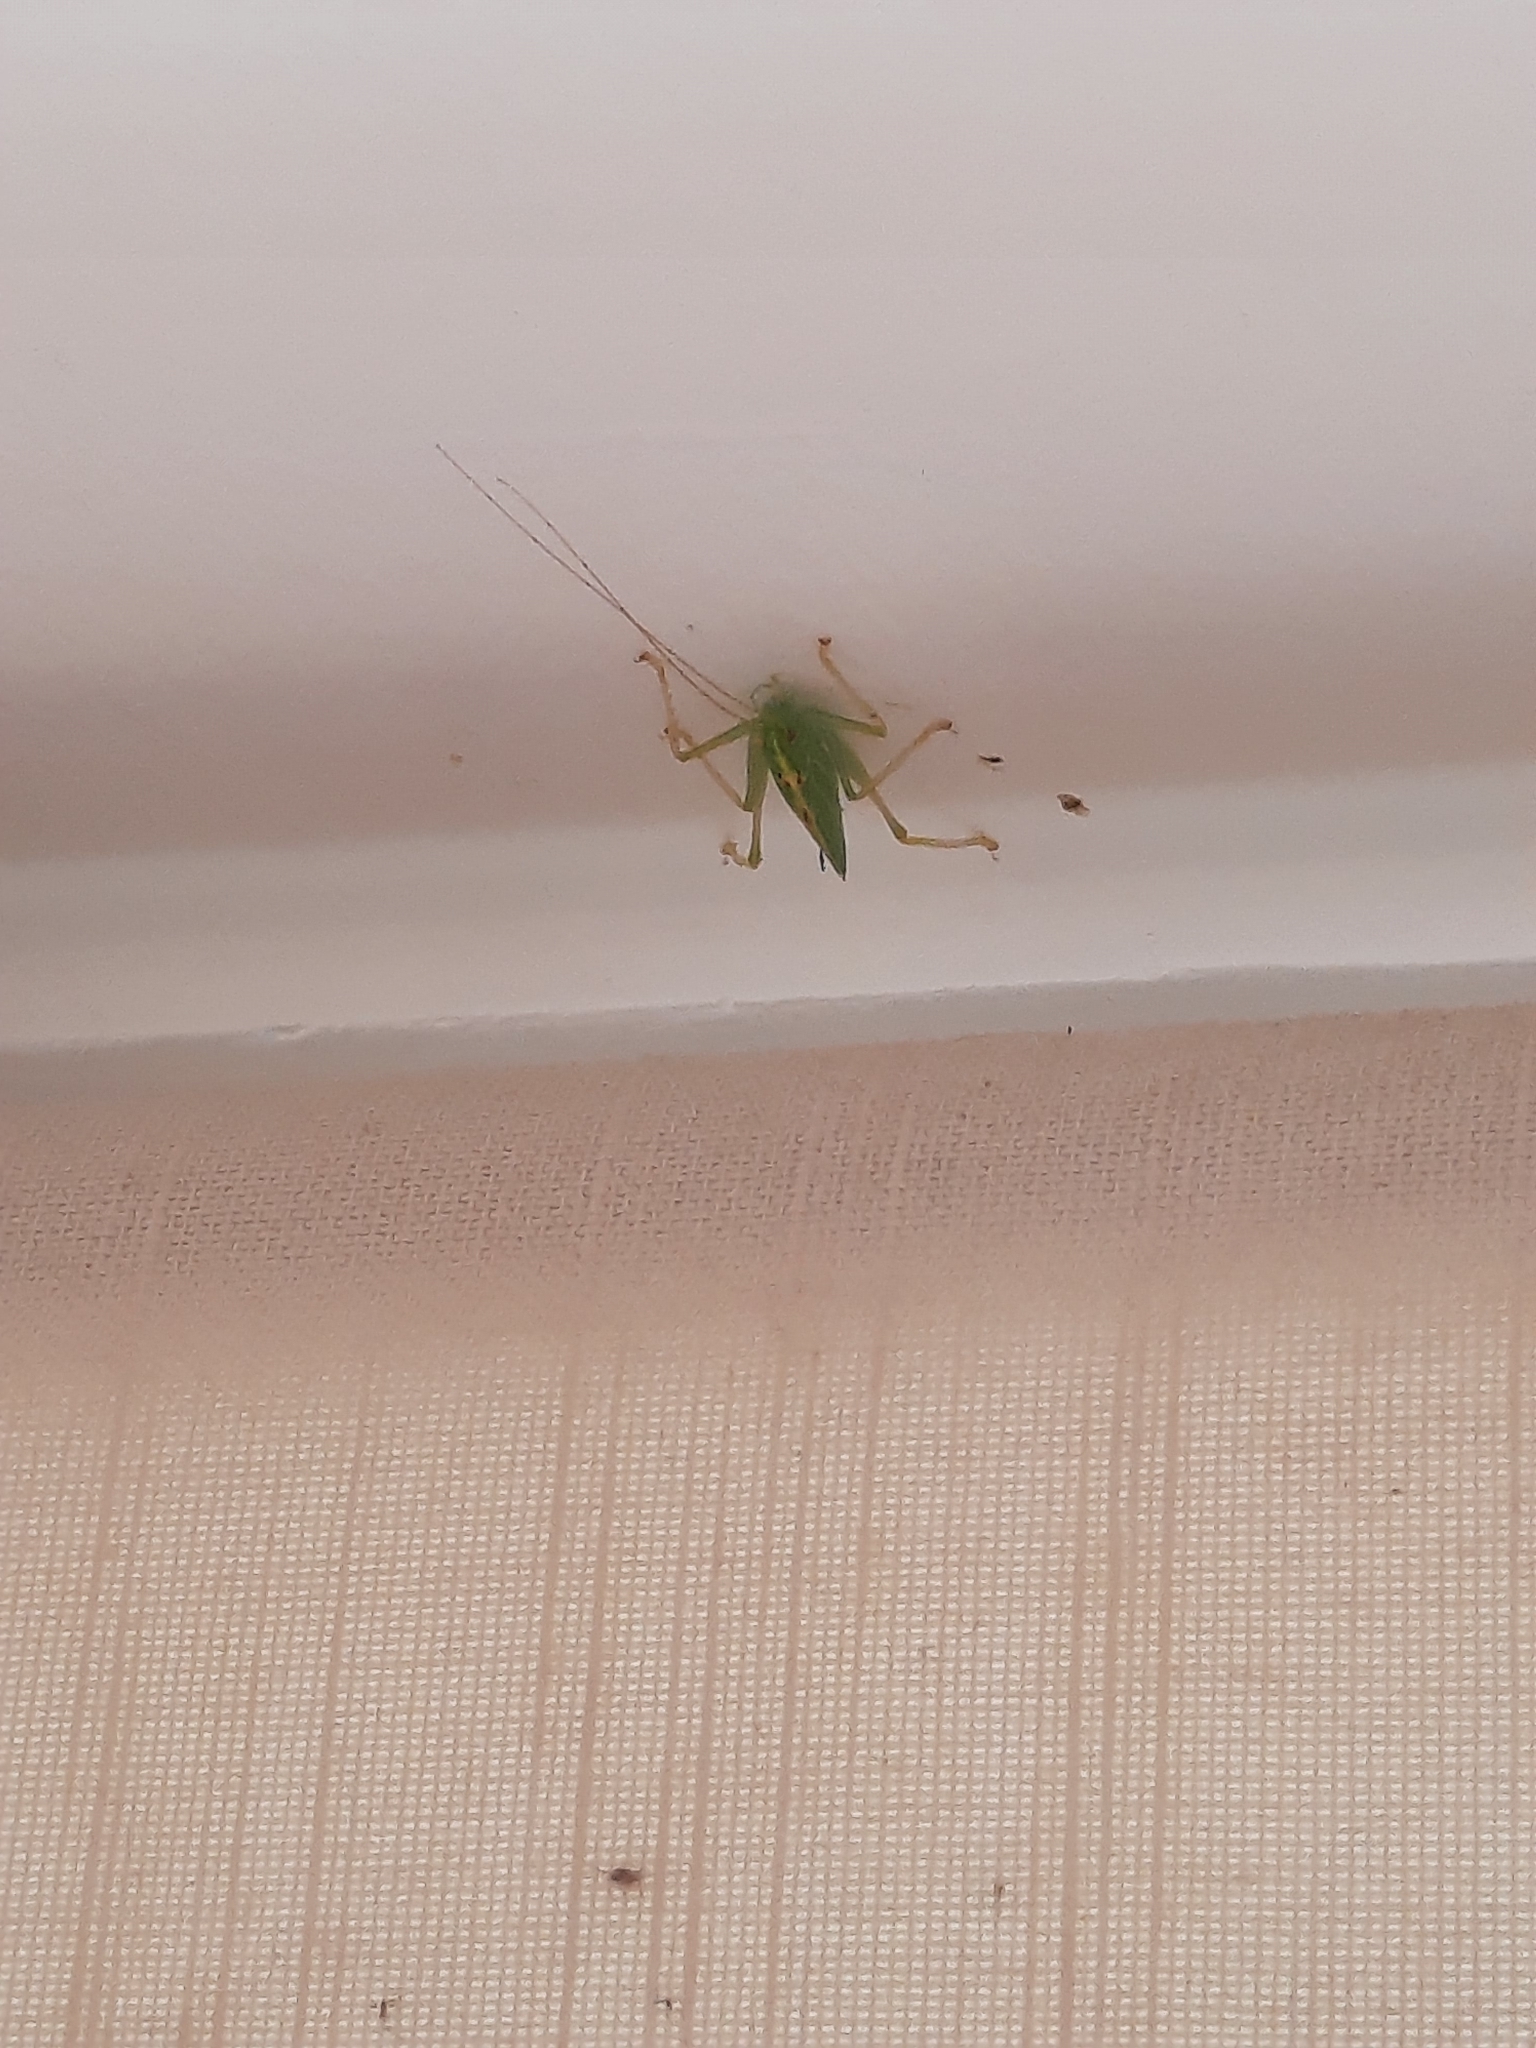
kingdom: Animalia
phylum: Arthropoda
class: Insecta
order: Orthoptera
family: Tettigoniidae
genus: Meconema
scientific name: Meconema thalassinum
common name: Oak bush-cricket
